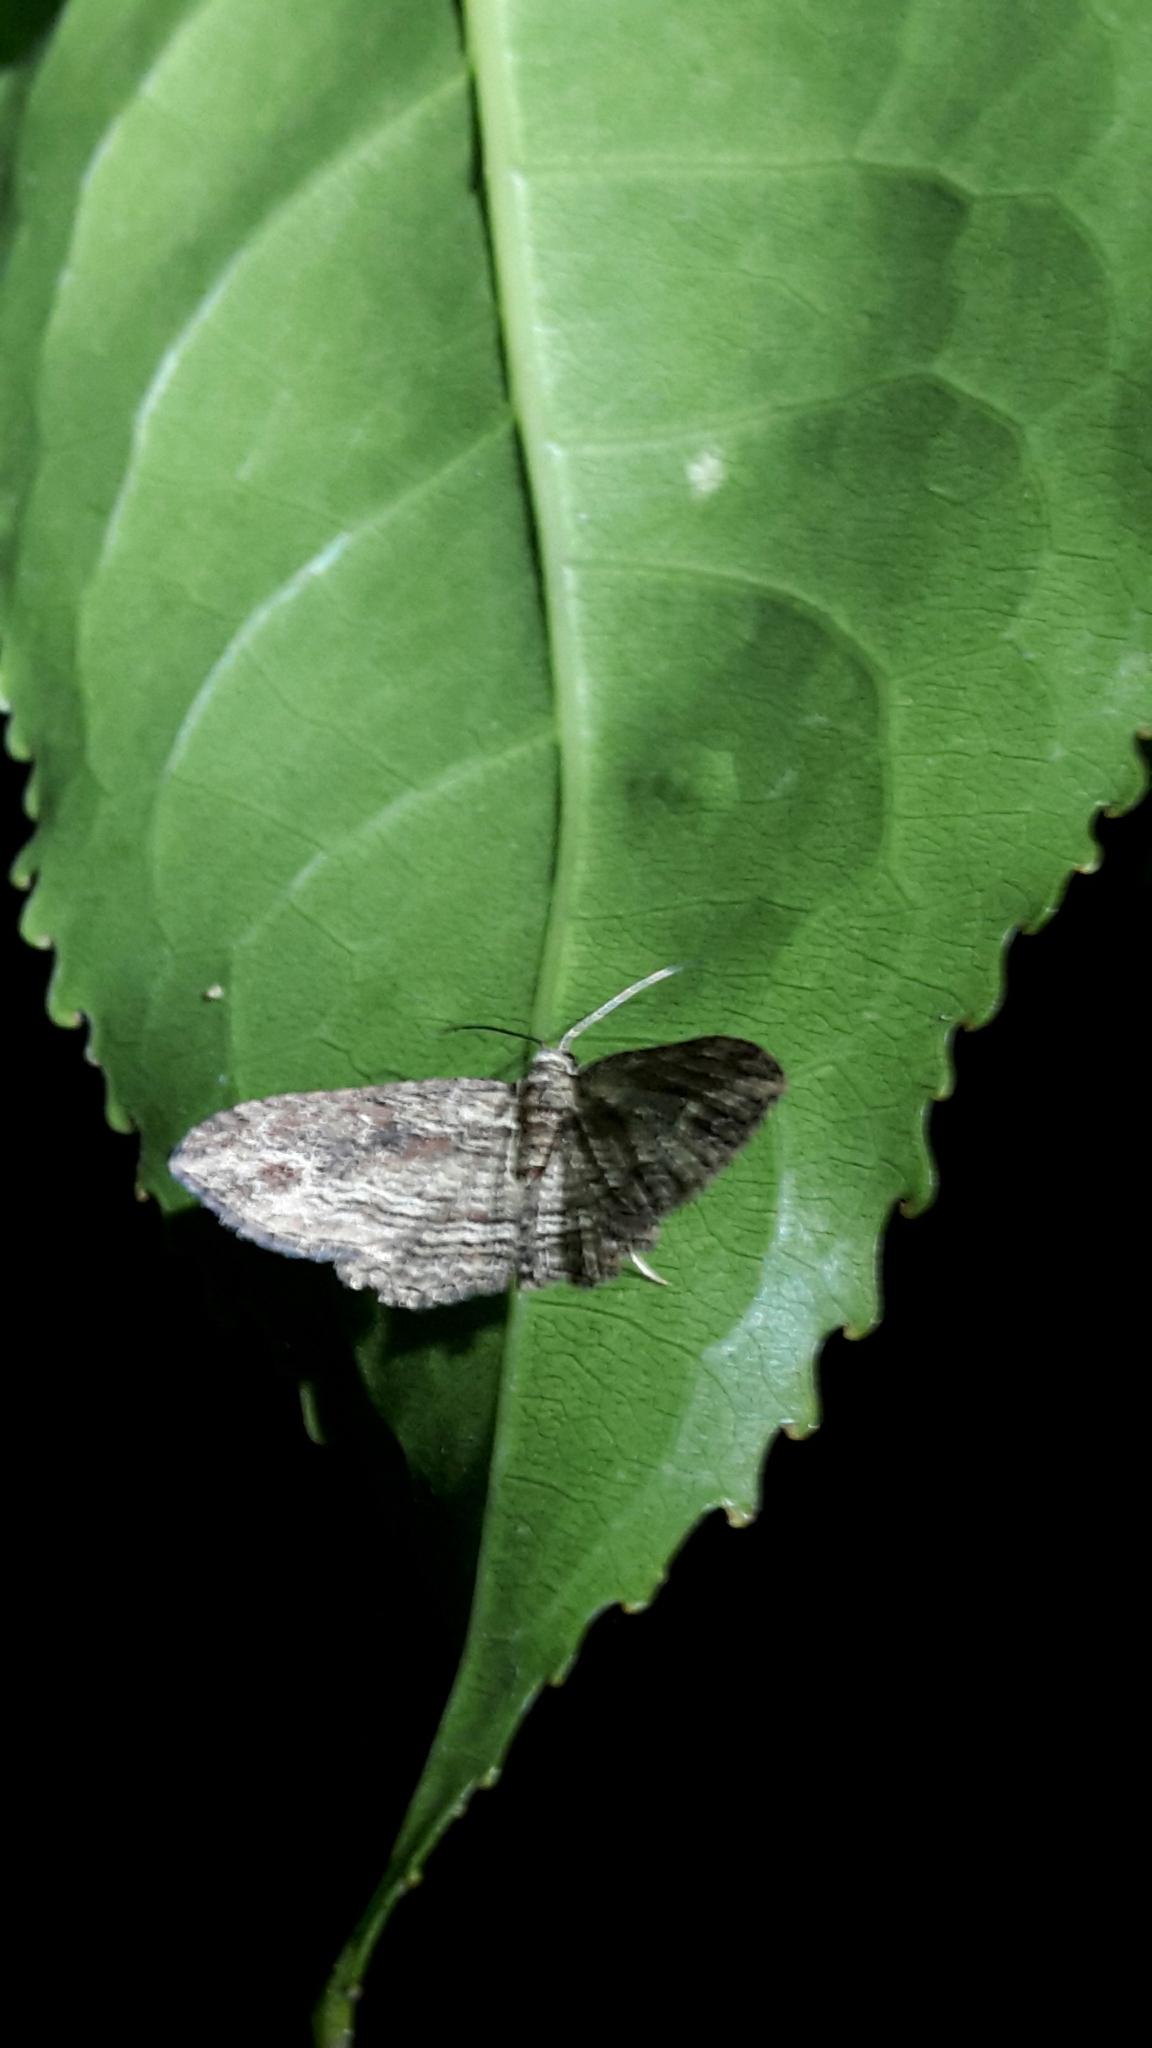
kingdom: Animalia
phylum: Arthropoda
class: Insecta
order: Lepidoptera
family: Geometridae
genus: Chloroclystis
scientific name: Chloroclystis filata
